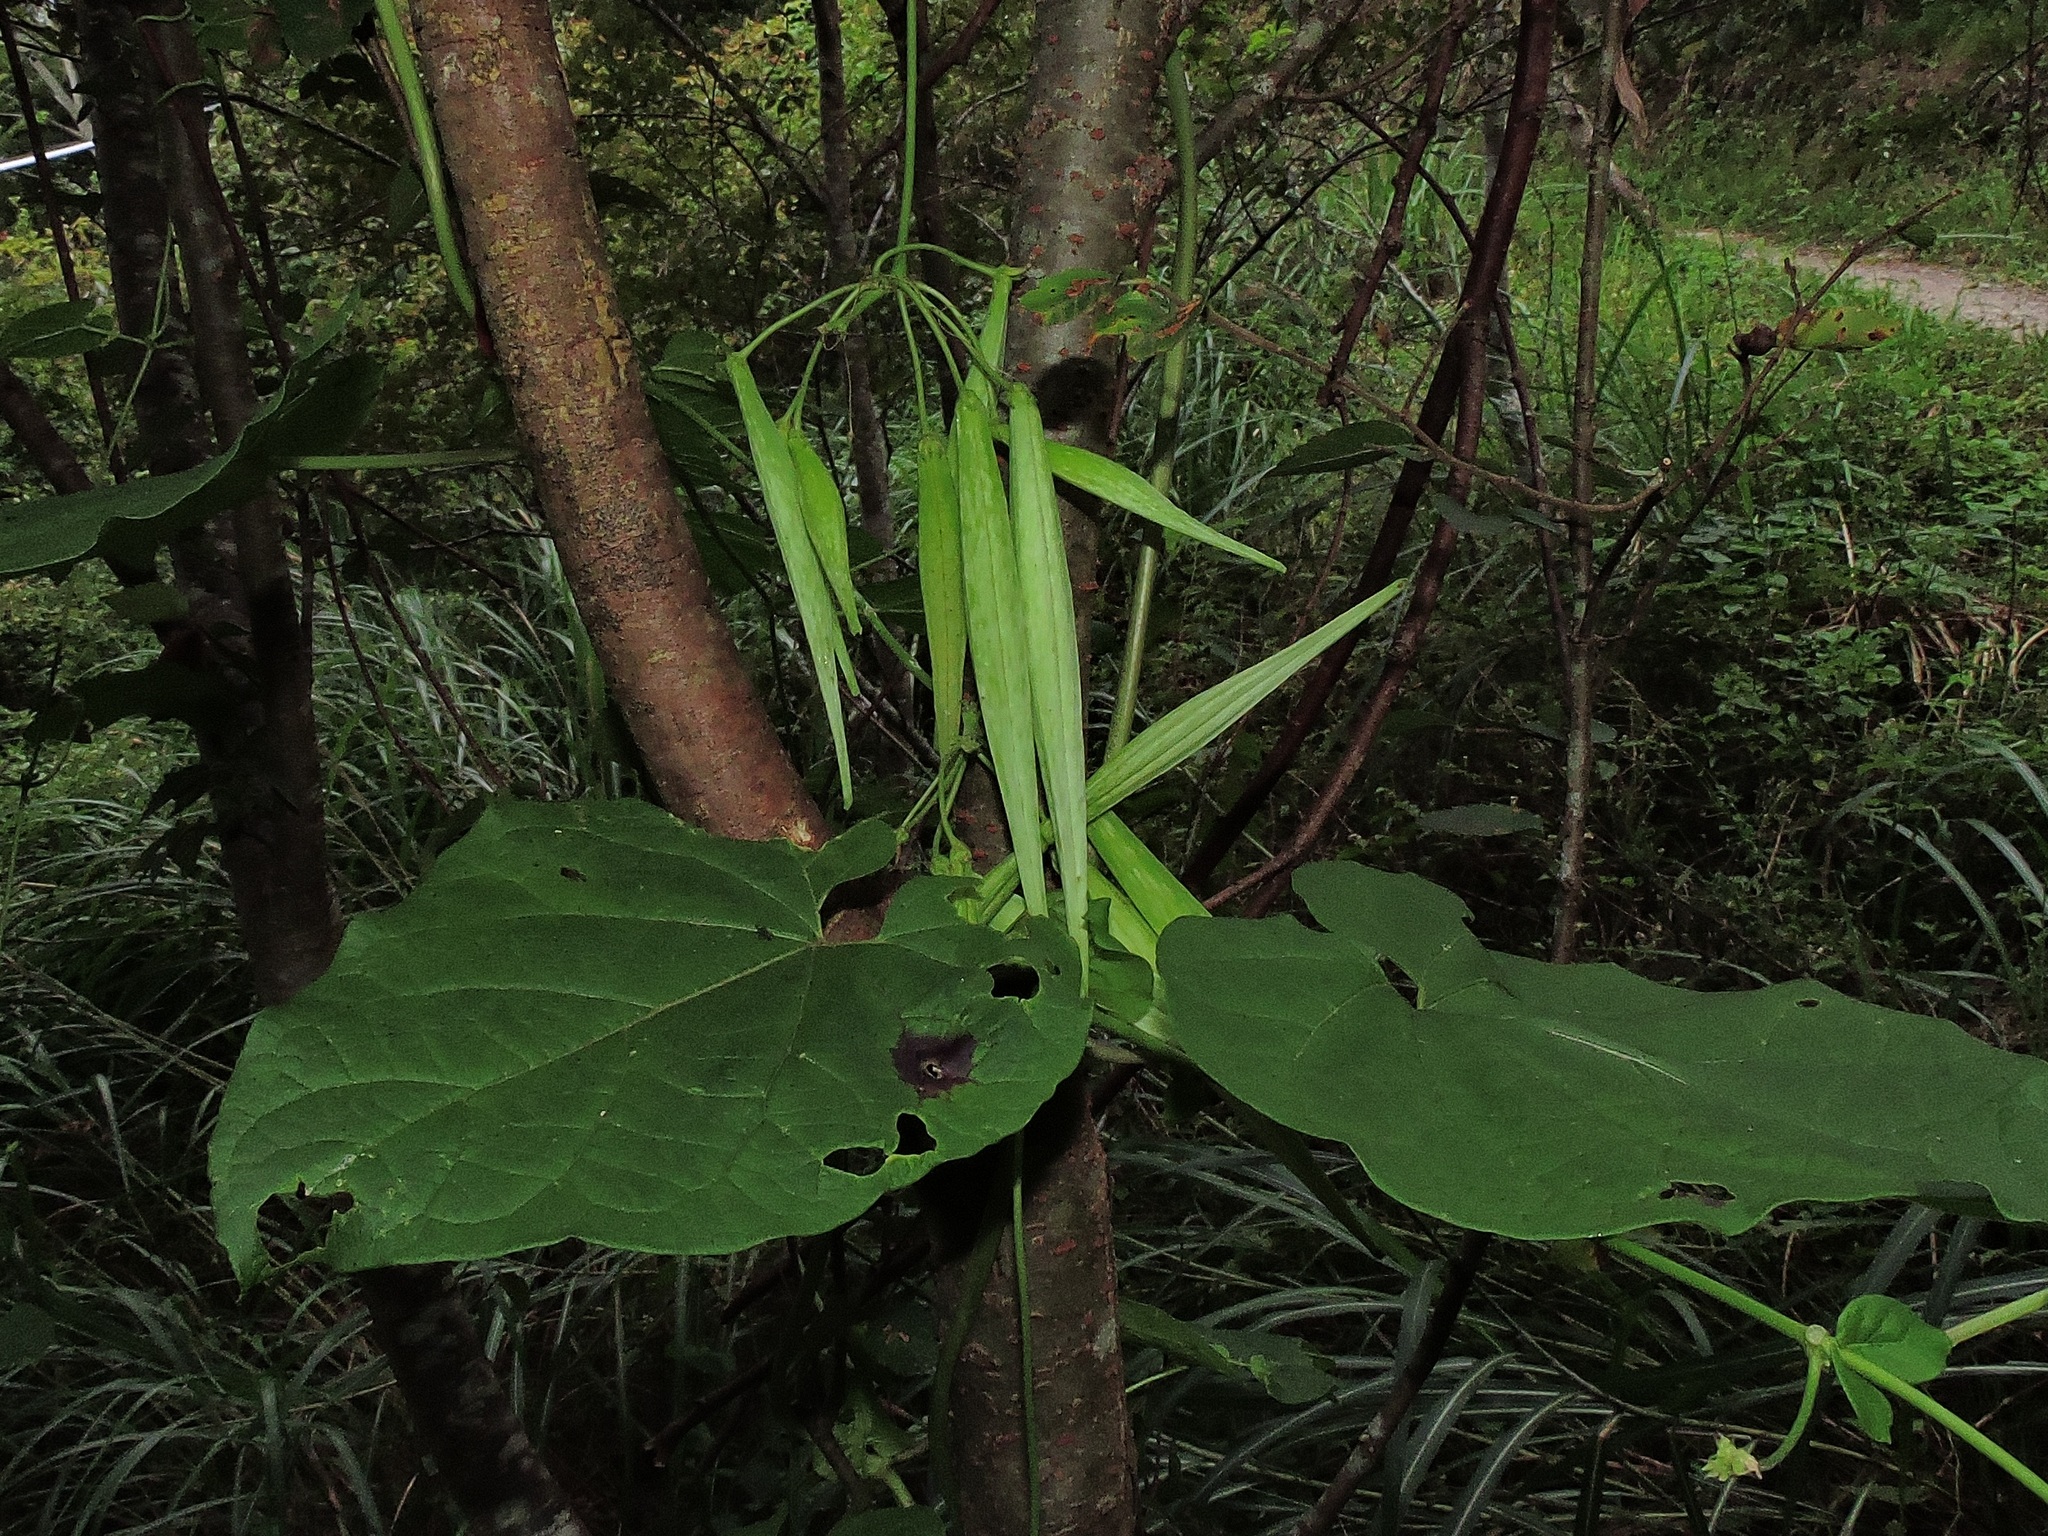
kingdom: Plantae
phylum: Tracheophyta
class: Magnoliopsida
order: Gentianales
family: Apocynaceae
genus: Cynanchum
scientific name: Cynanchum boudieri
